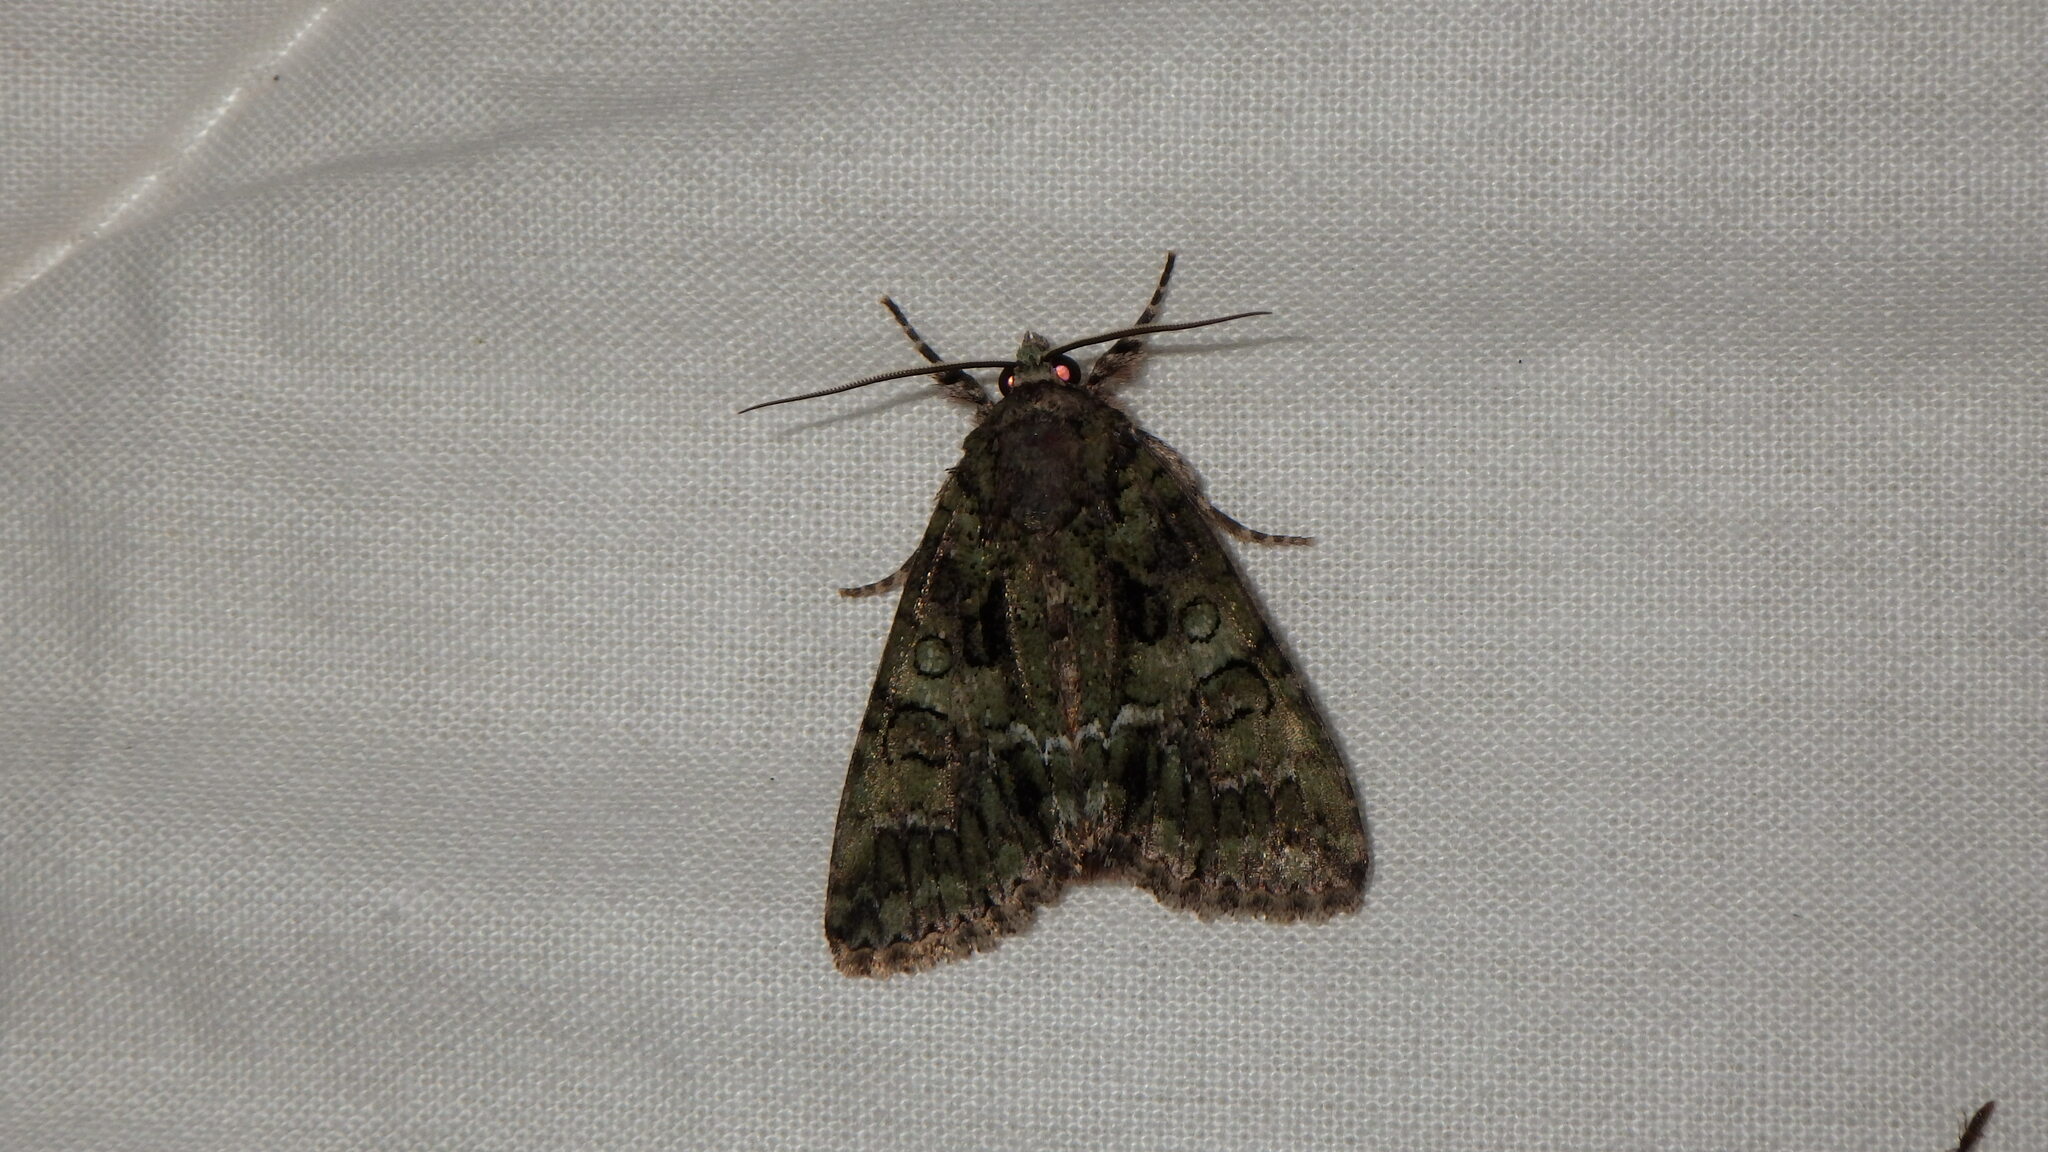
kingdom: Animalia
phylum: Arthropoda
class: Insecta
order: Lepidoptera
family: Noctuidae
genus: Polyphaenis
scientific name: Polyphaenis sericata
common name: Guernsey underwing
